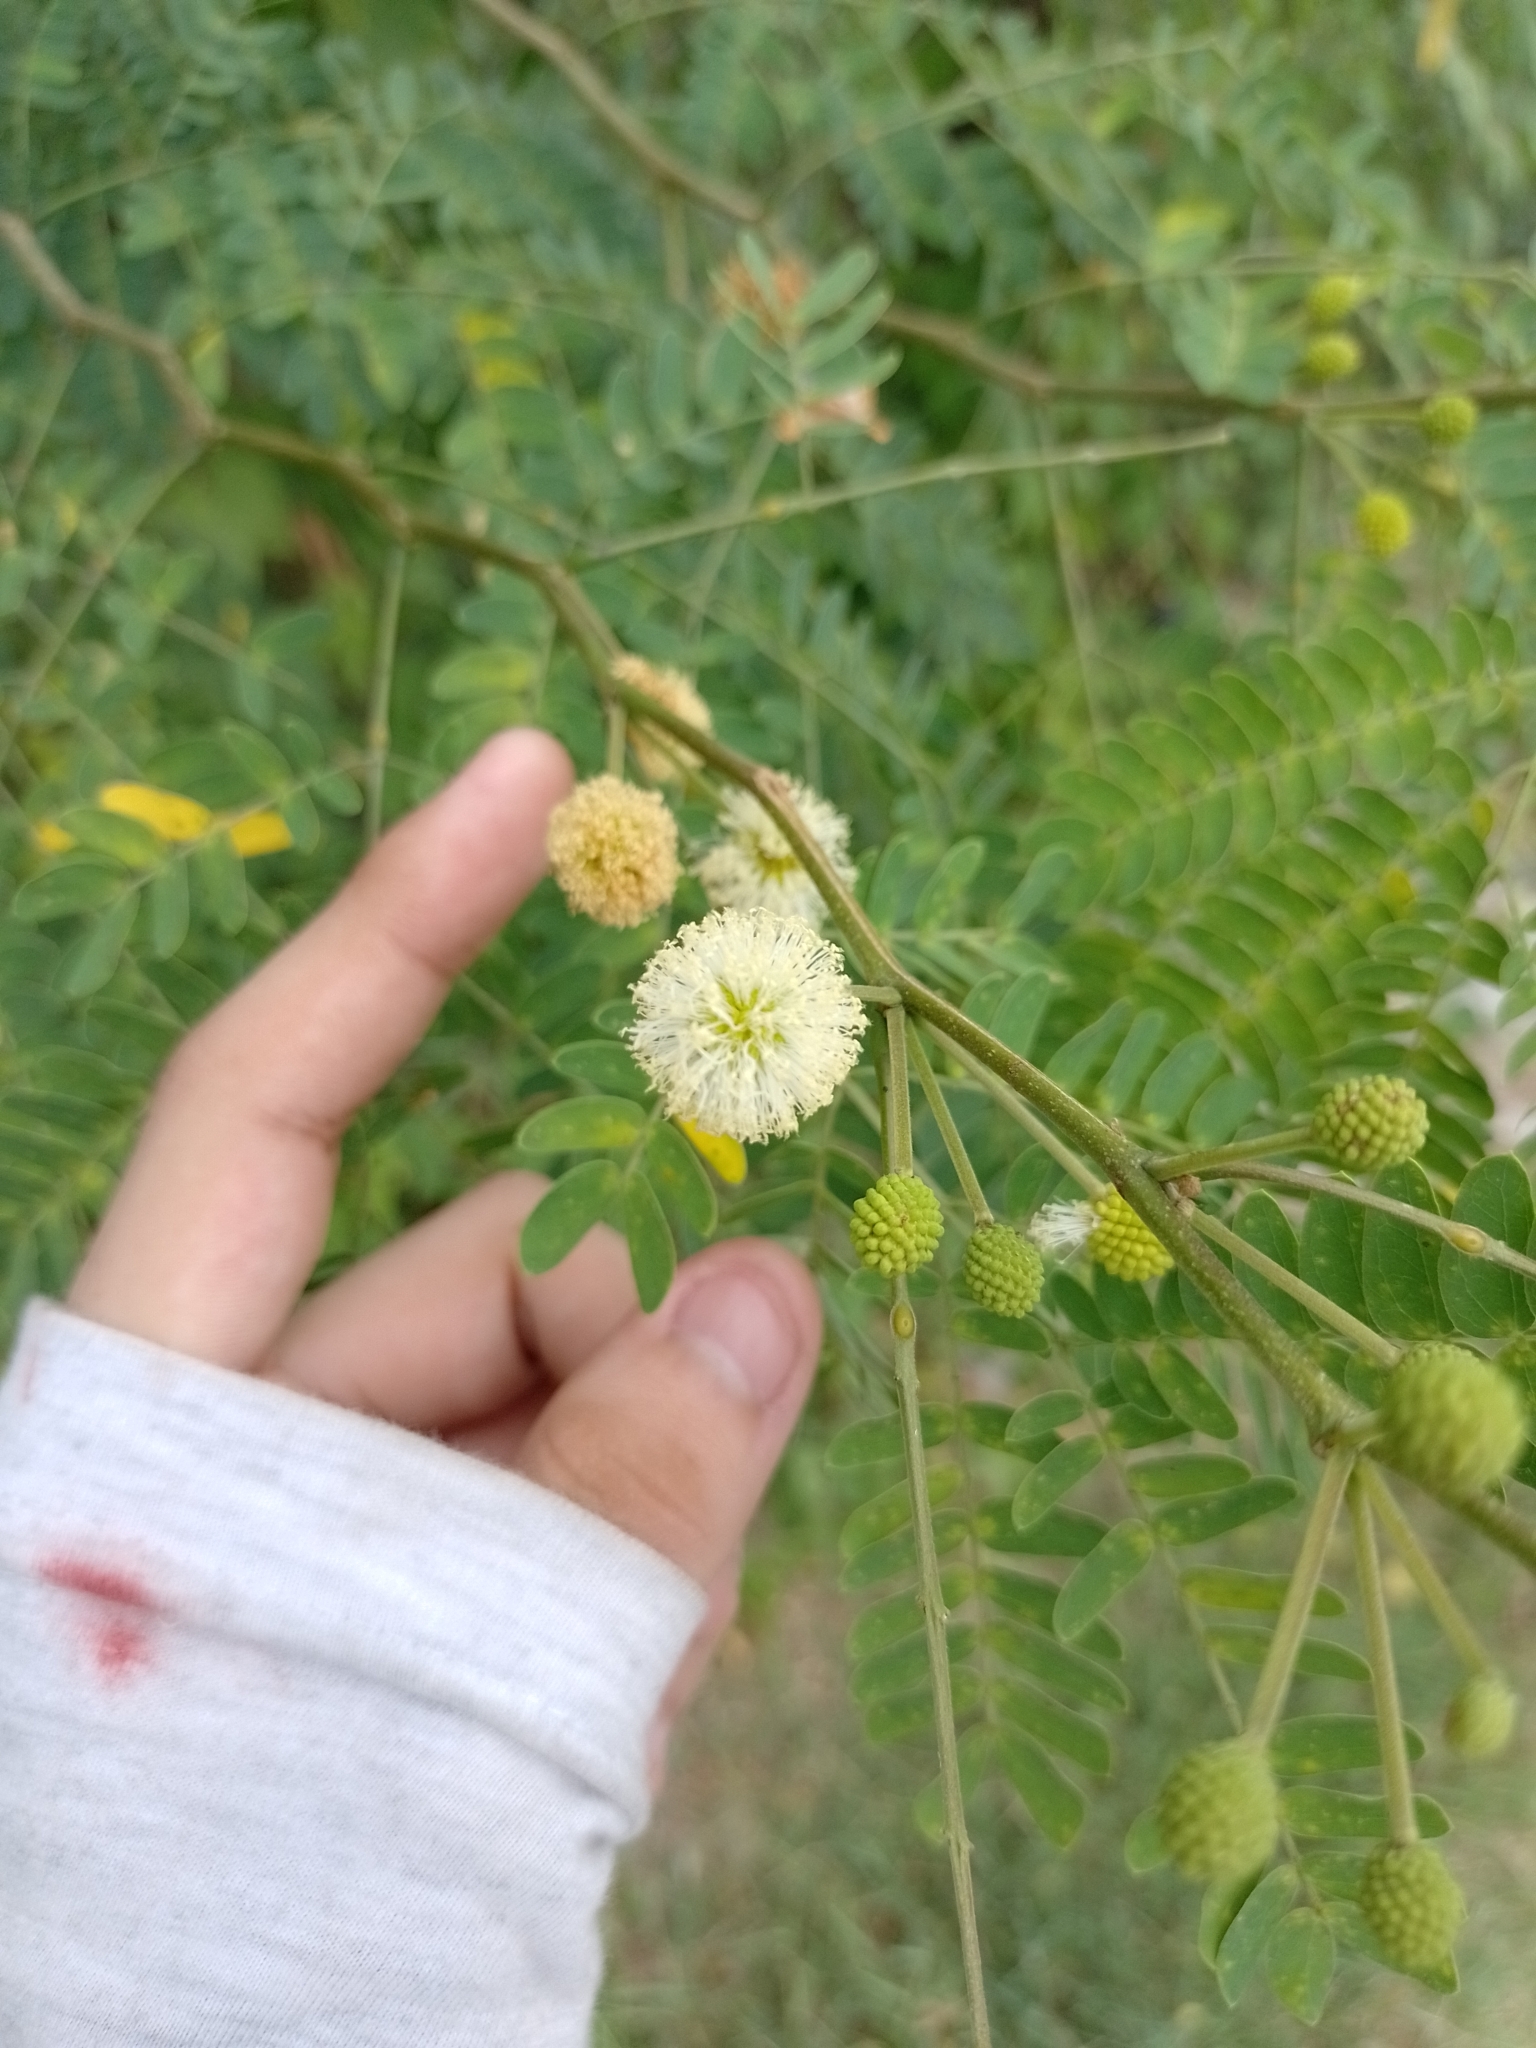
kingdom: Plantae
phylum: Tracheophyta
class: Magnoliopsida
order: Fabales
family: Fabaceae
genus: Leucaena
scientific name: Leucaena leucocephala
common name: White leadtree
